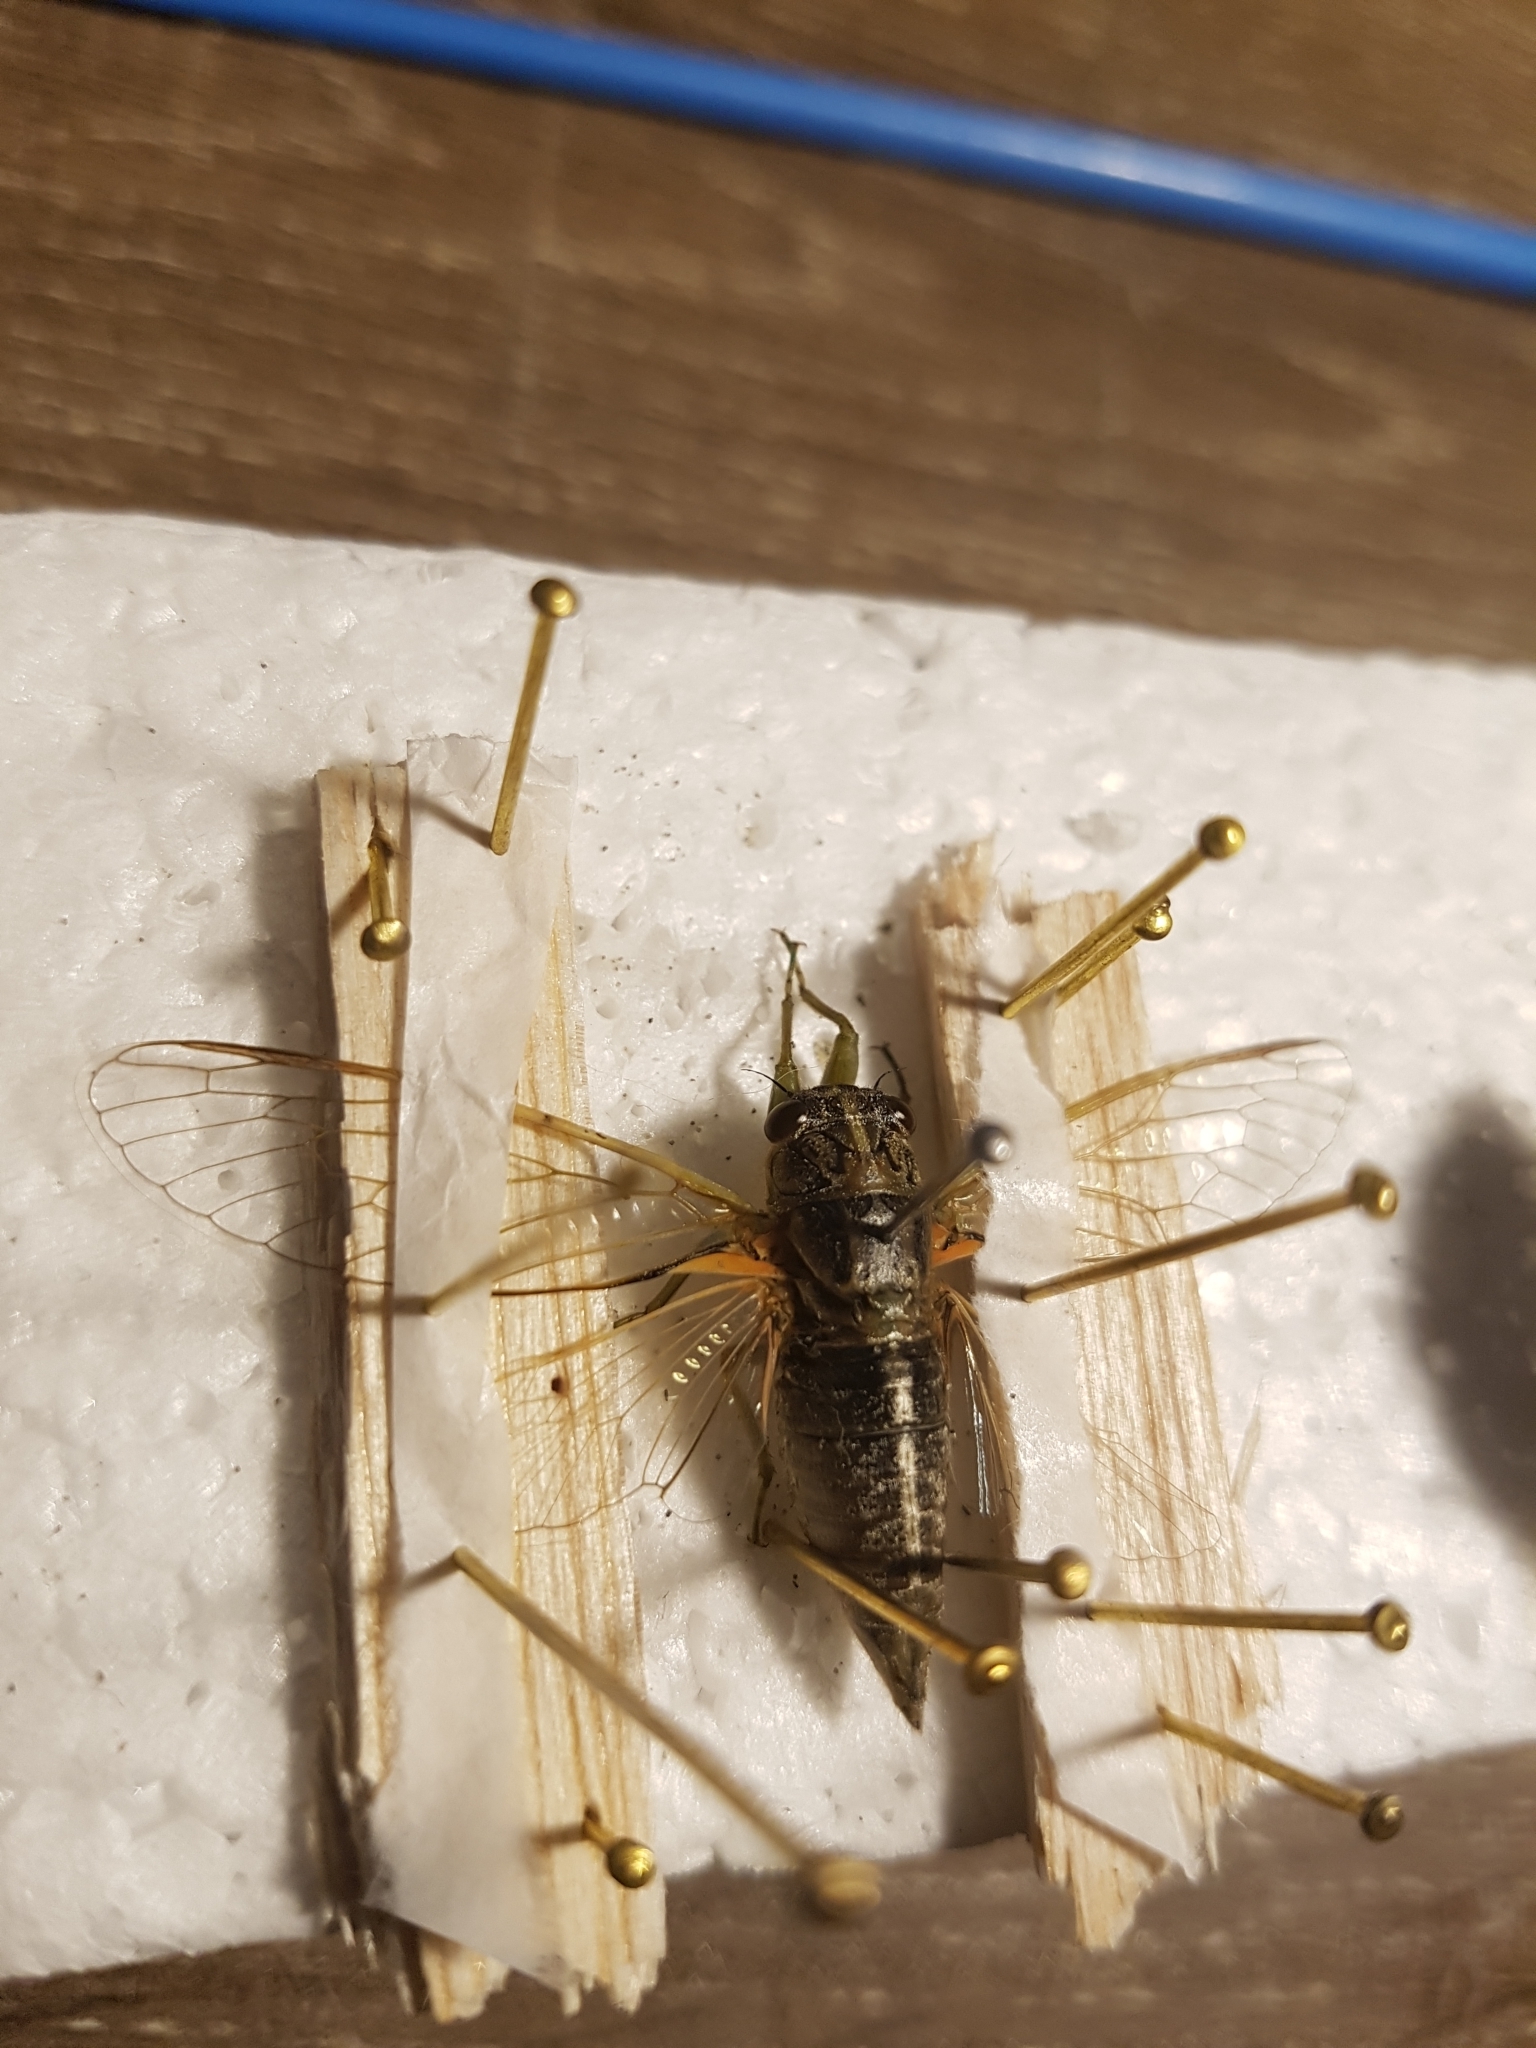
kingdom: Animalia
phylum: Arthropoda
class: Insecta
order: Hemiptera
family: Cicadidae
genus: Rhodopsalta
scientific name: Rhodopsalta leptomera
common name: Sand dune redtail cicada
